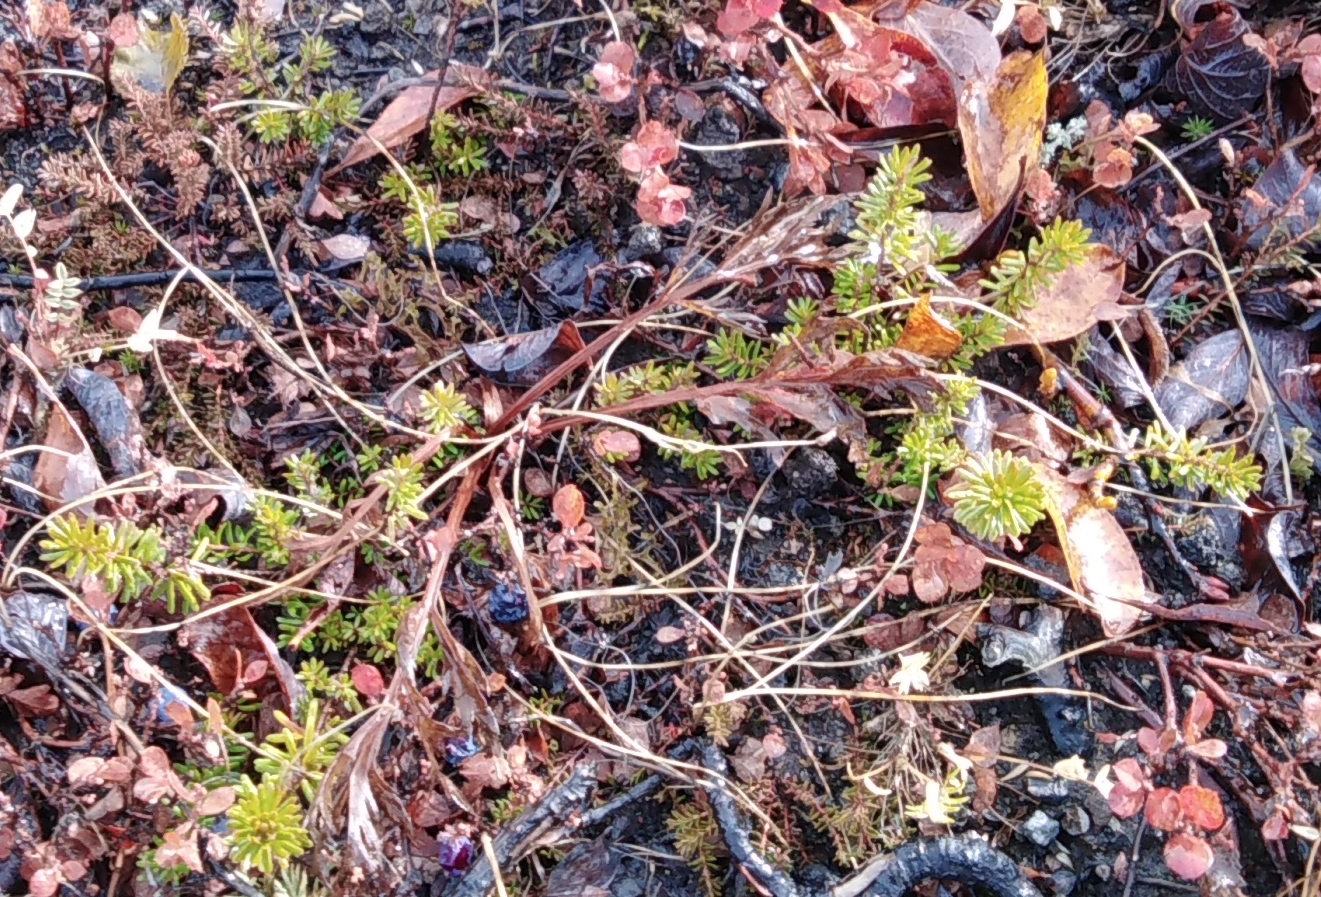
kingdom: Plantae
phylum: Tracheophyta
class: Magnoliopsida
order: Ericales
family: Ericaceae
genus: Empetrum
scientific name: Empetrum nigrum
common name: Black crowberry
